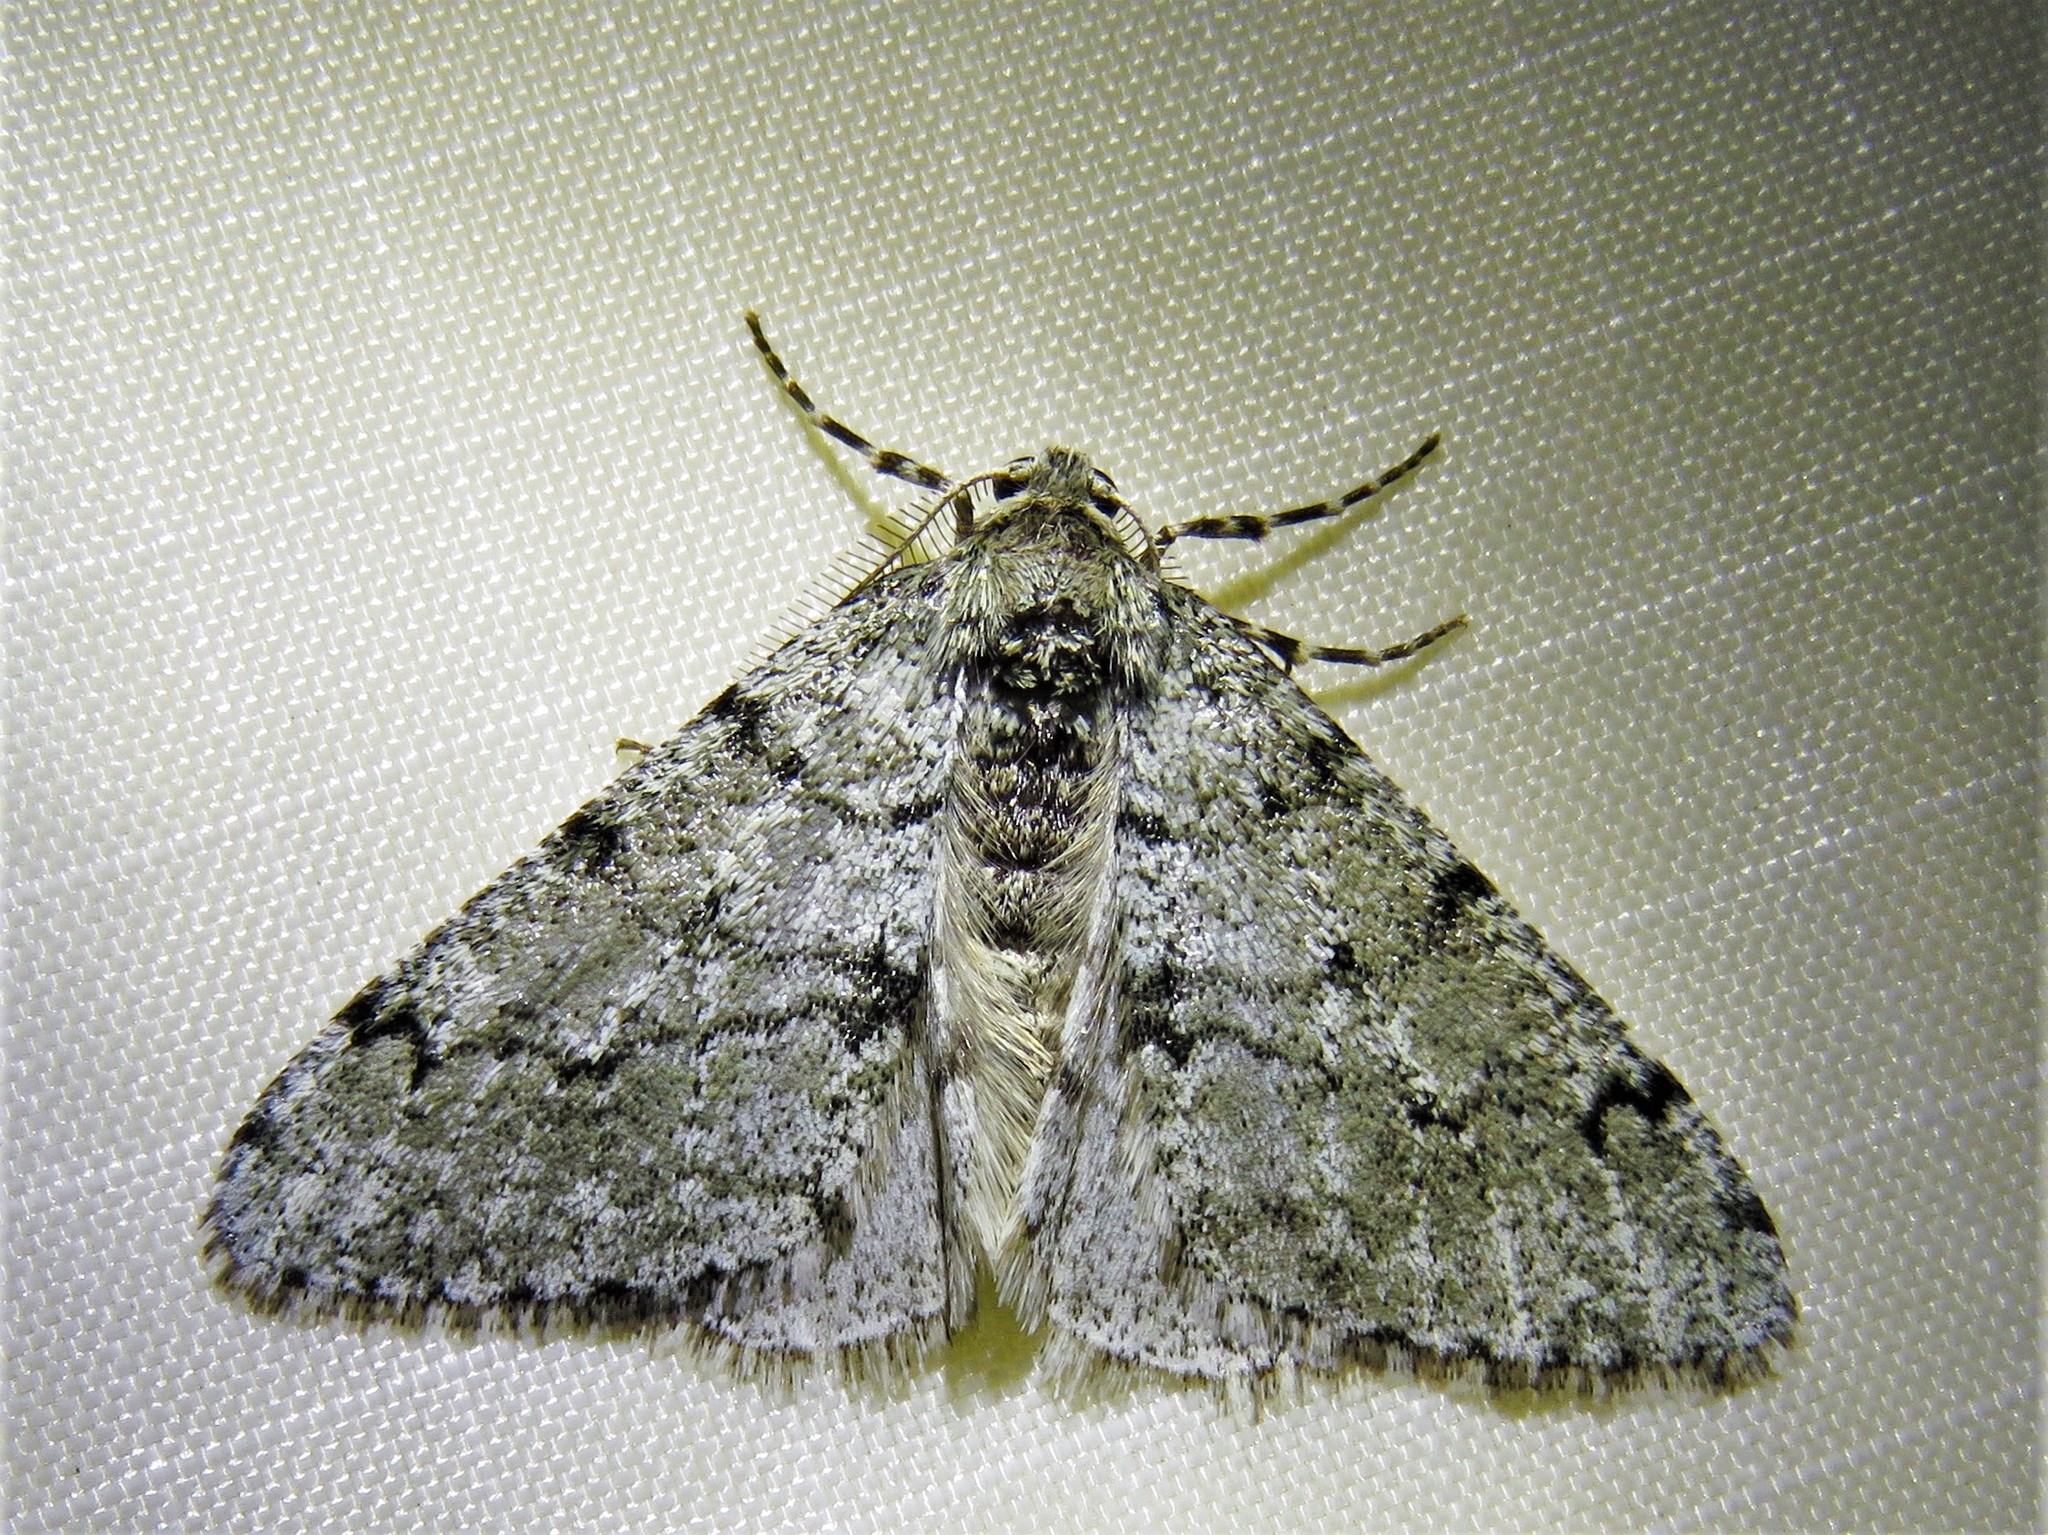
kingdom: Animalia
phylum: Arthropoda
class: Insecta
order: Lepidoptera
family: Geometridae
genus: Phigalia
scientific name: Phigalia strigataria
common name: Small phigalia
